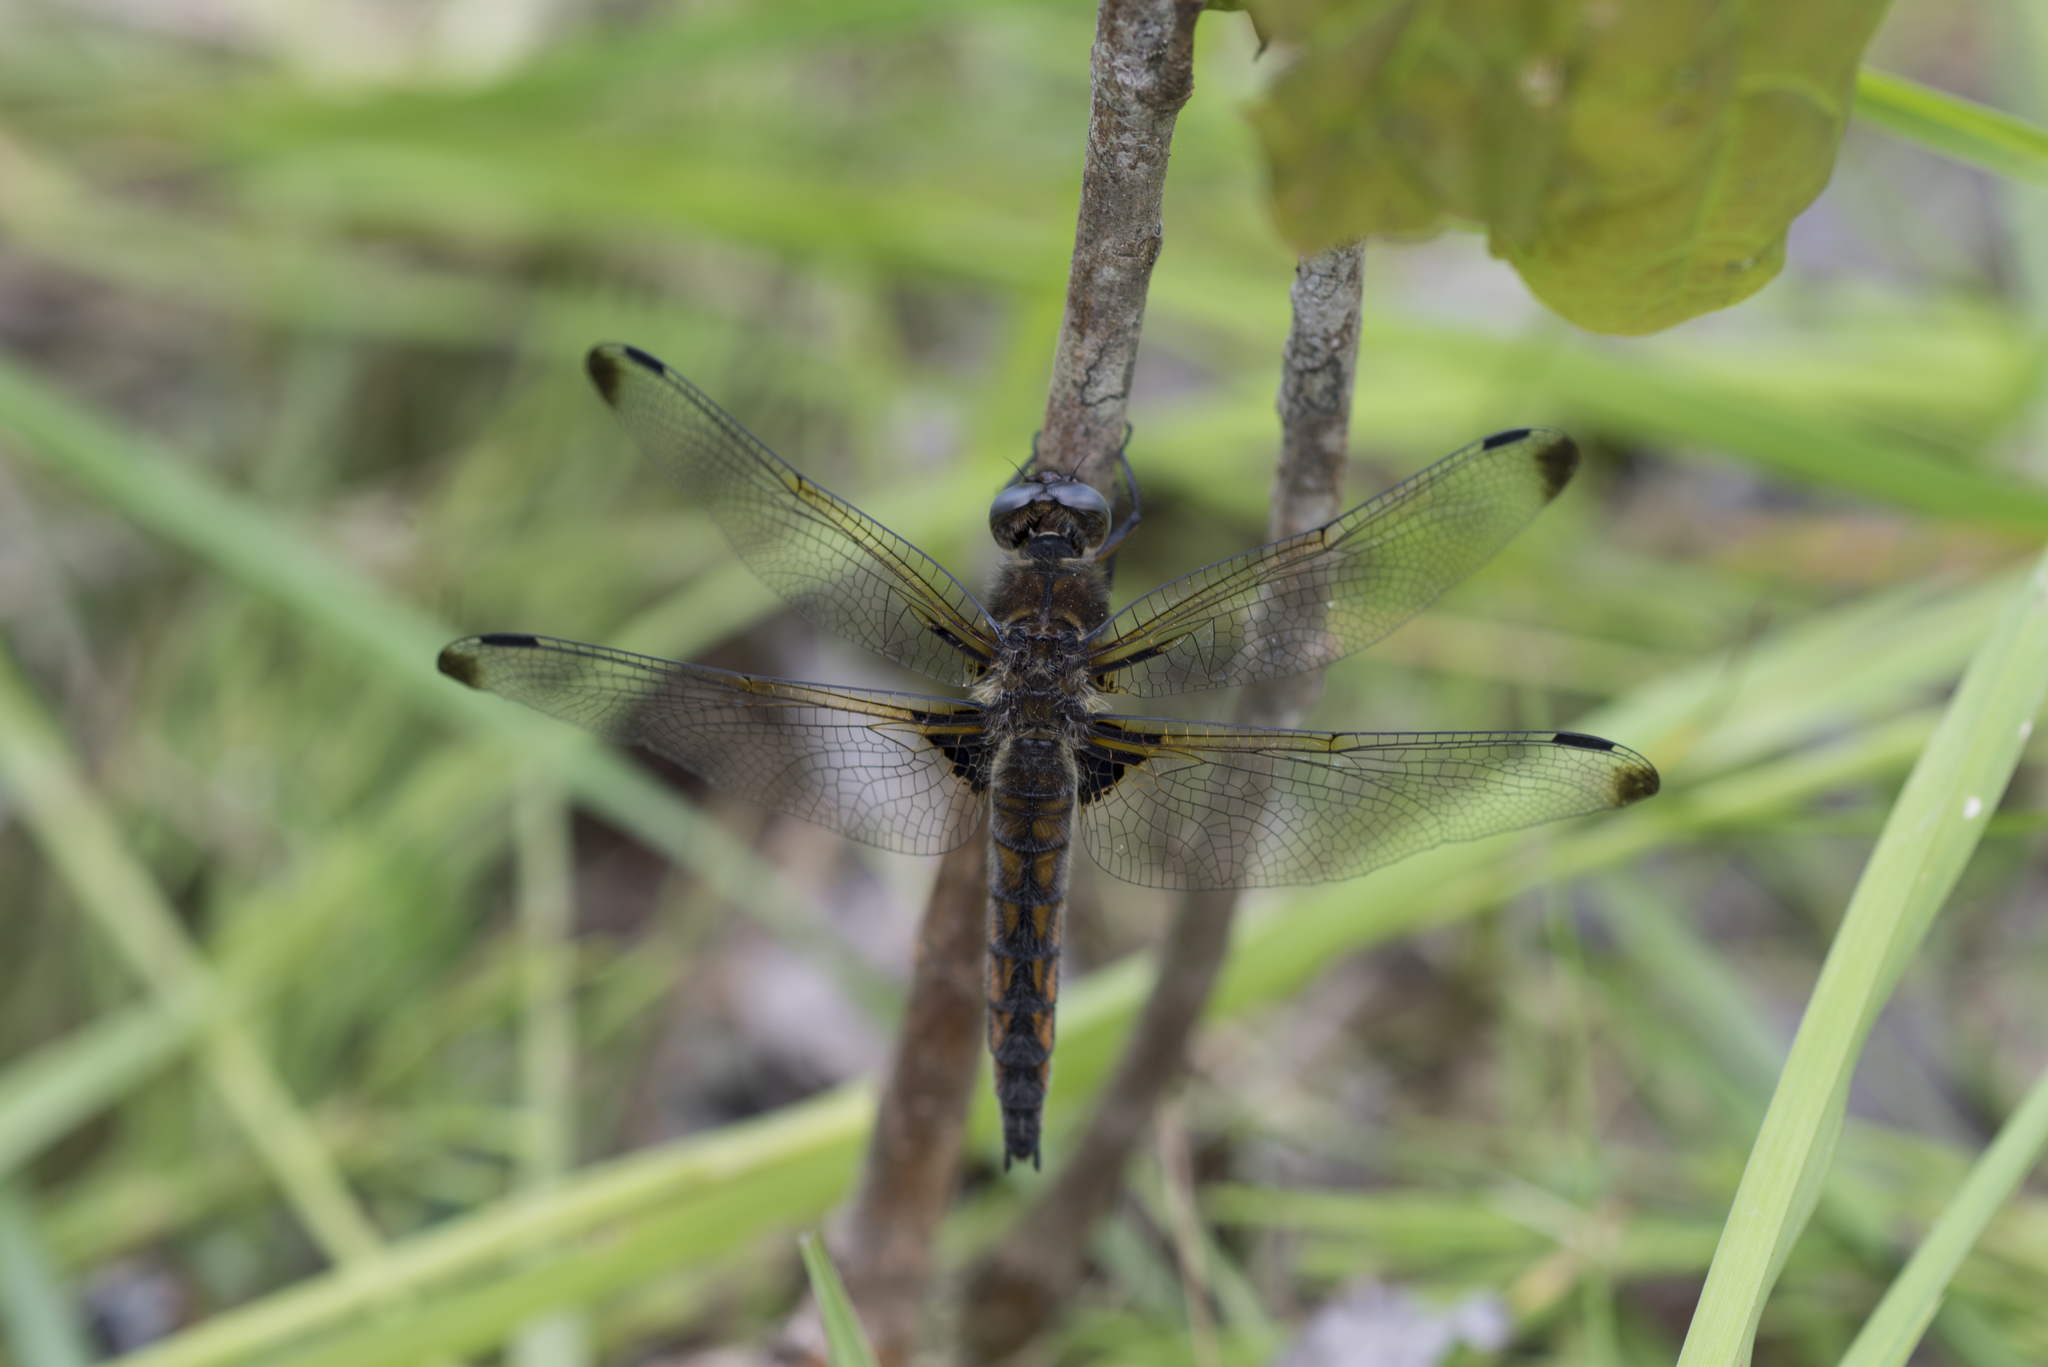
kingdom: Animalia
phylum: Arthropoda
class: Insecta
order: Odonata
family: Libellulidae
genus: Libellula
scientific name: Libellula fulva
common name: Blue chaser
